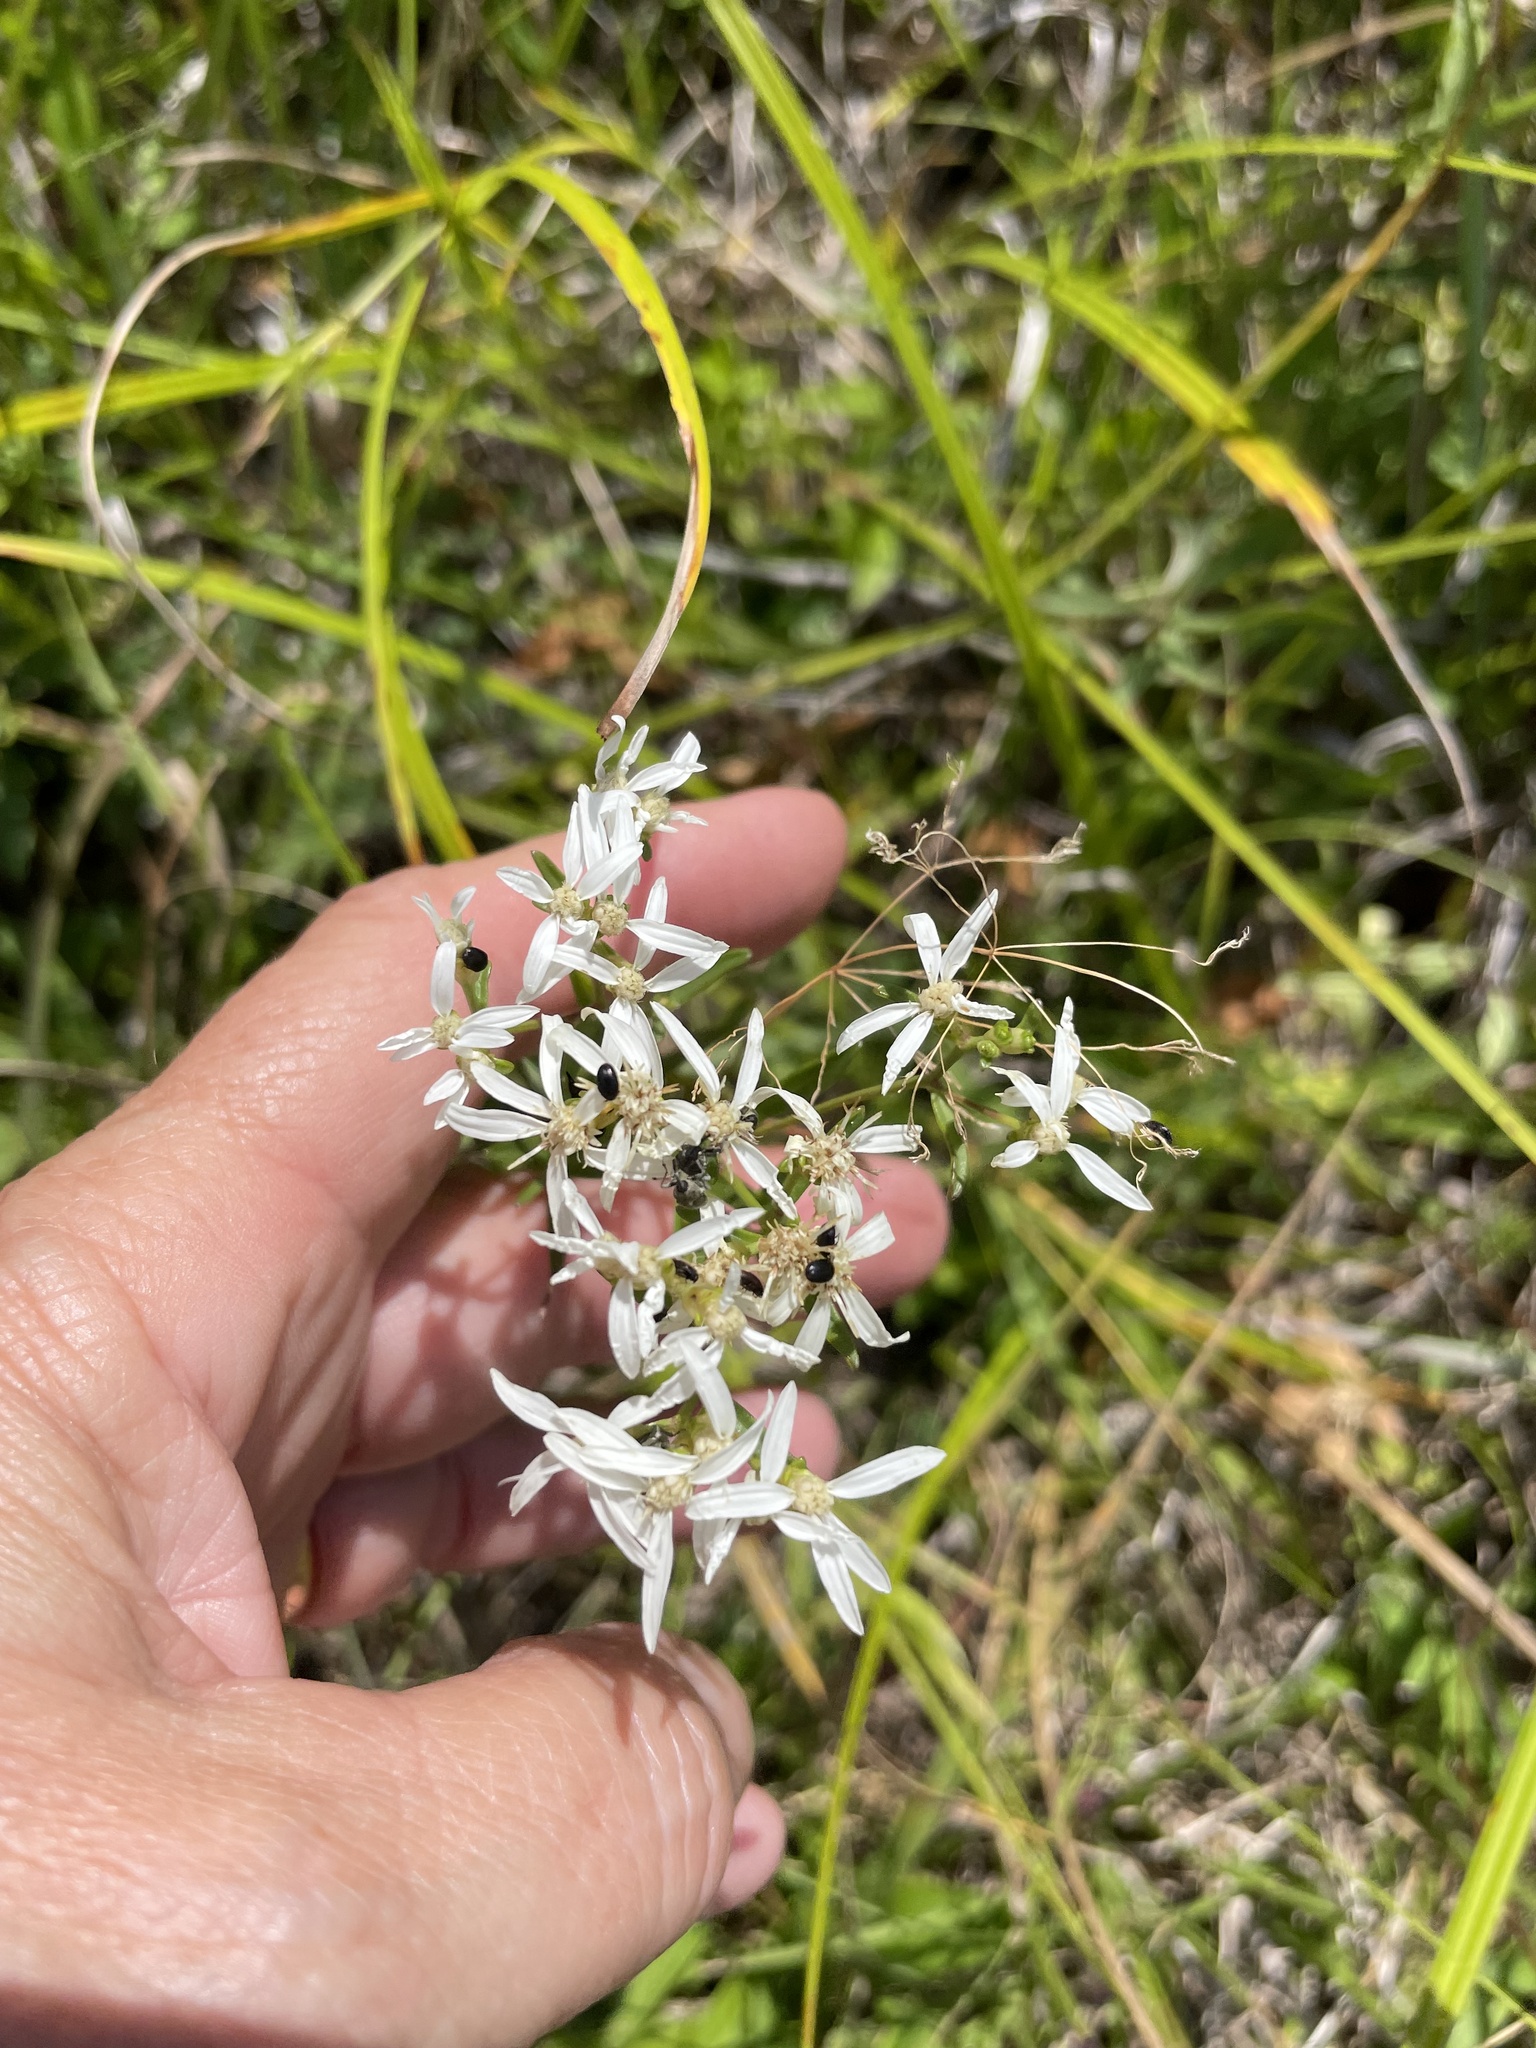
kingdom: Plantae
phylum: Tracheophyta
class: Magnoliopsida
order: Asterales
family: Asteraceae
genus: Sericocarpus
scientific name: Sericocarpus linifolius
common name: Narrow-leaf aster
